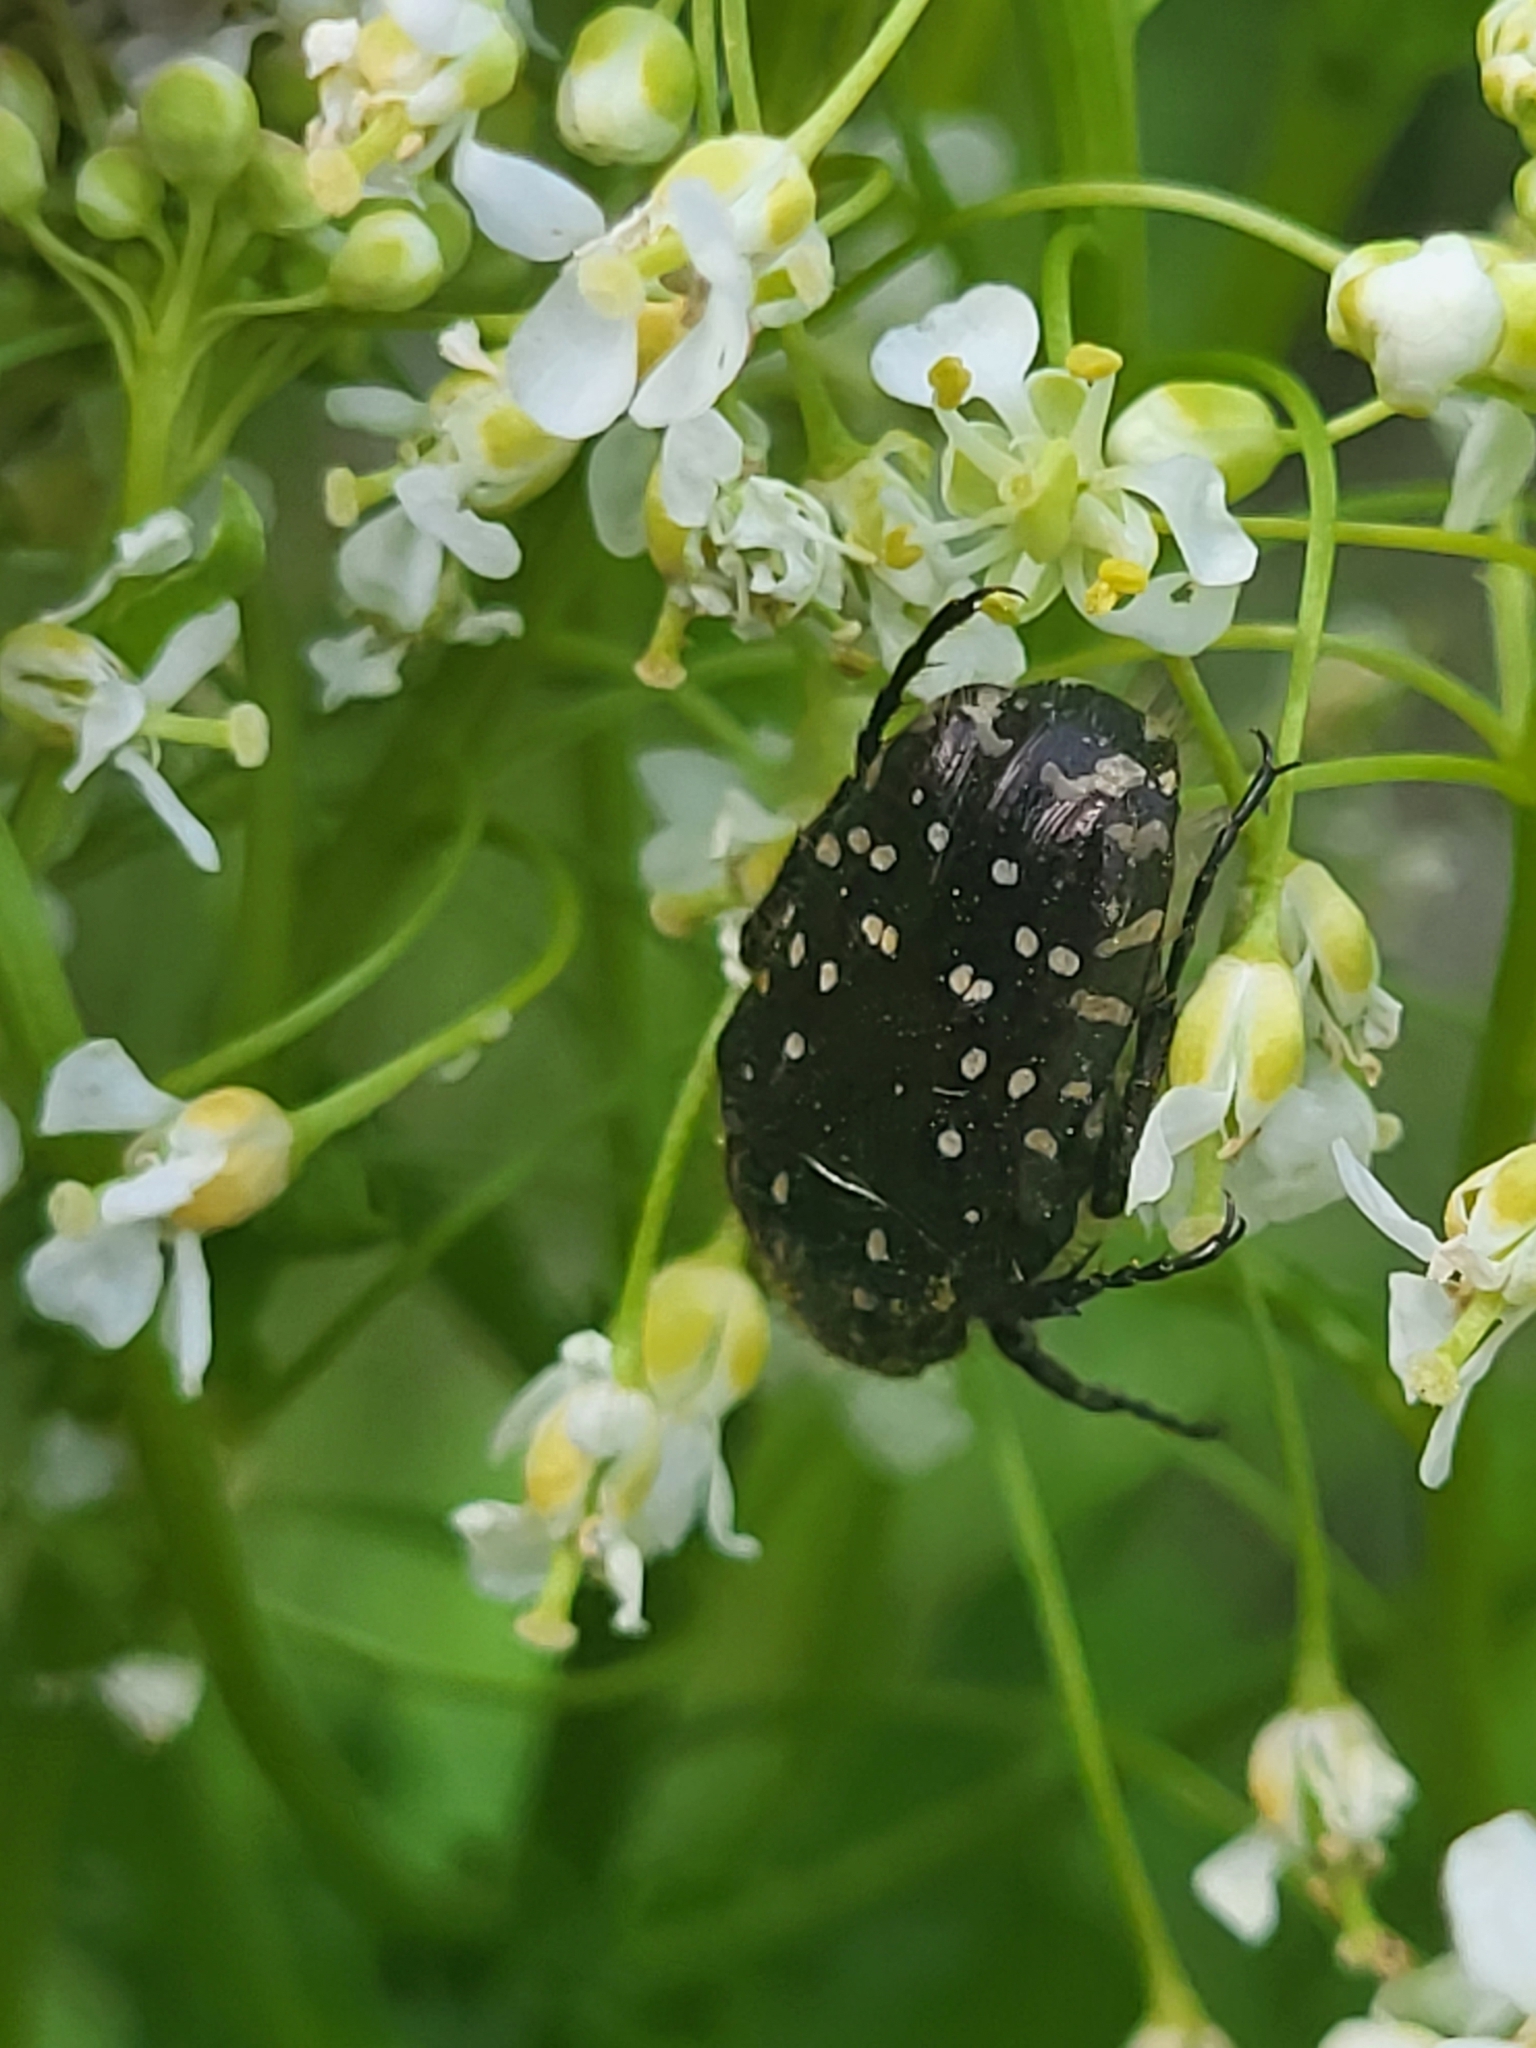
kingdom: Animalia
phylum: Arthropoda
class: Insecta
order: Coleoptera
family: Scarabaeidae
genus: Oxythyrea
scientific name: Oxythyrea funesta
